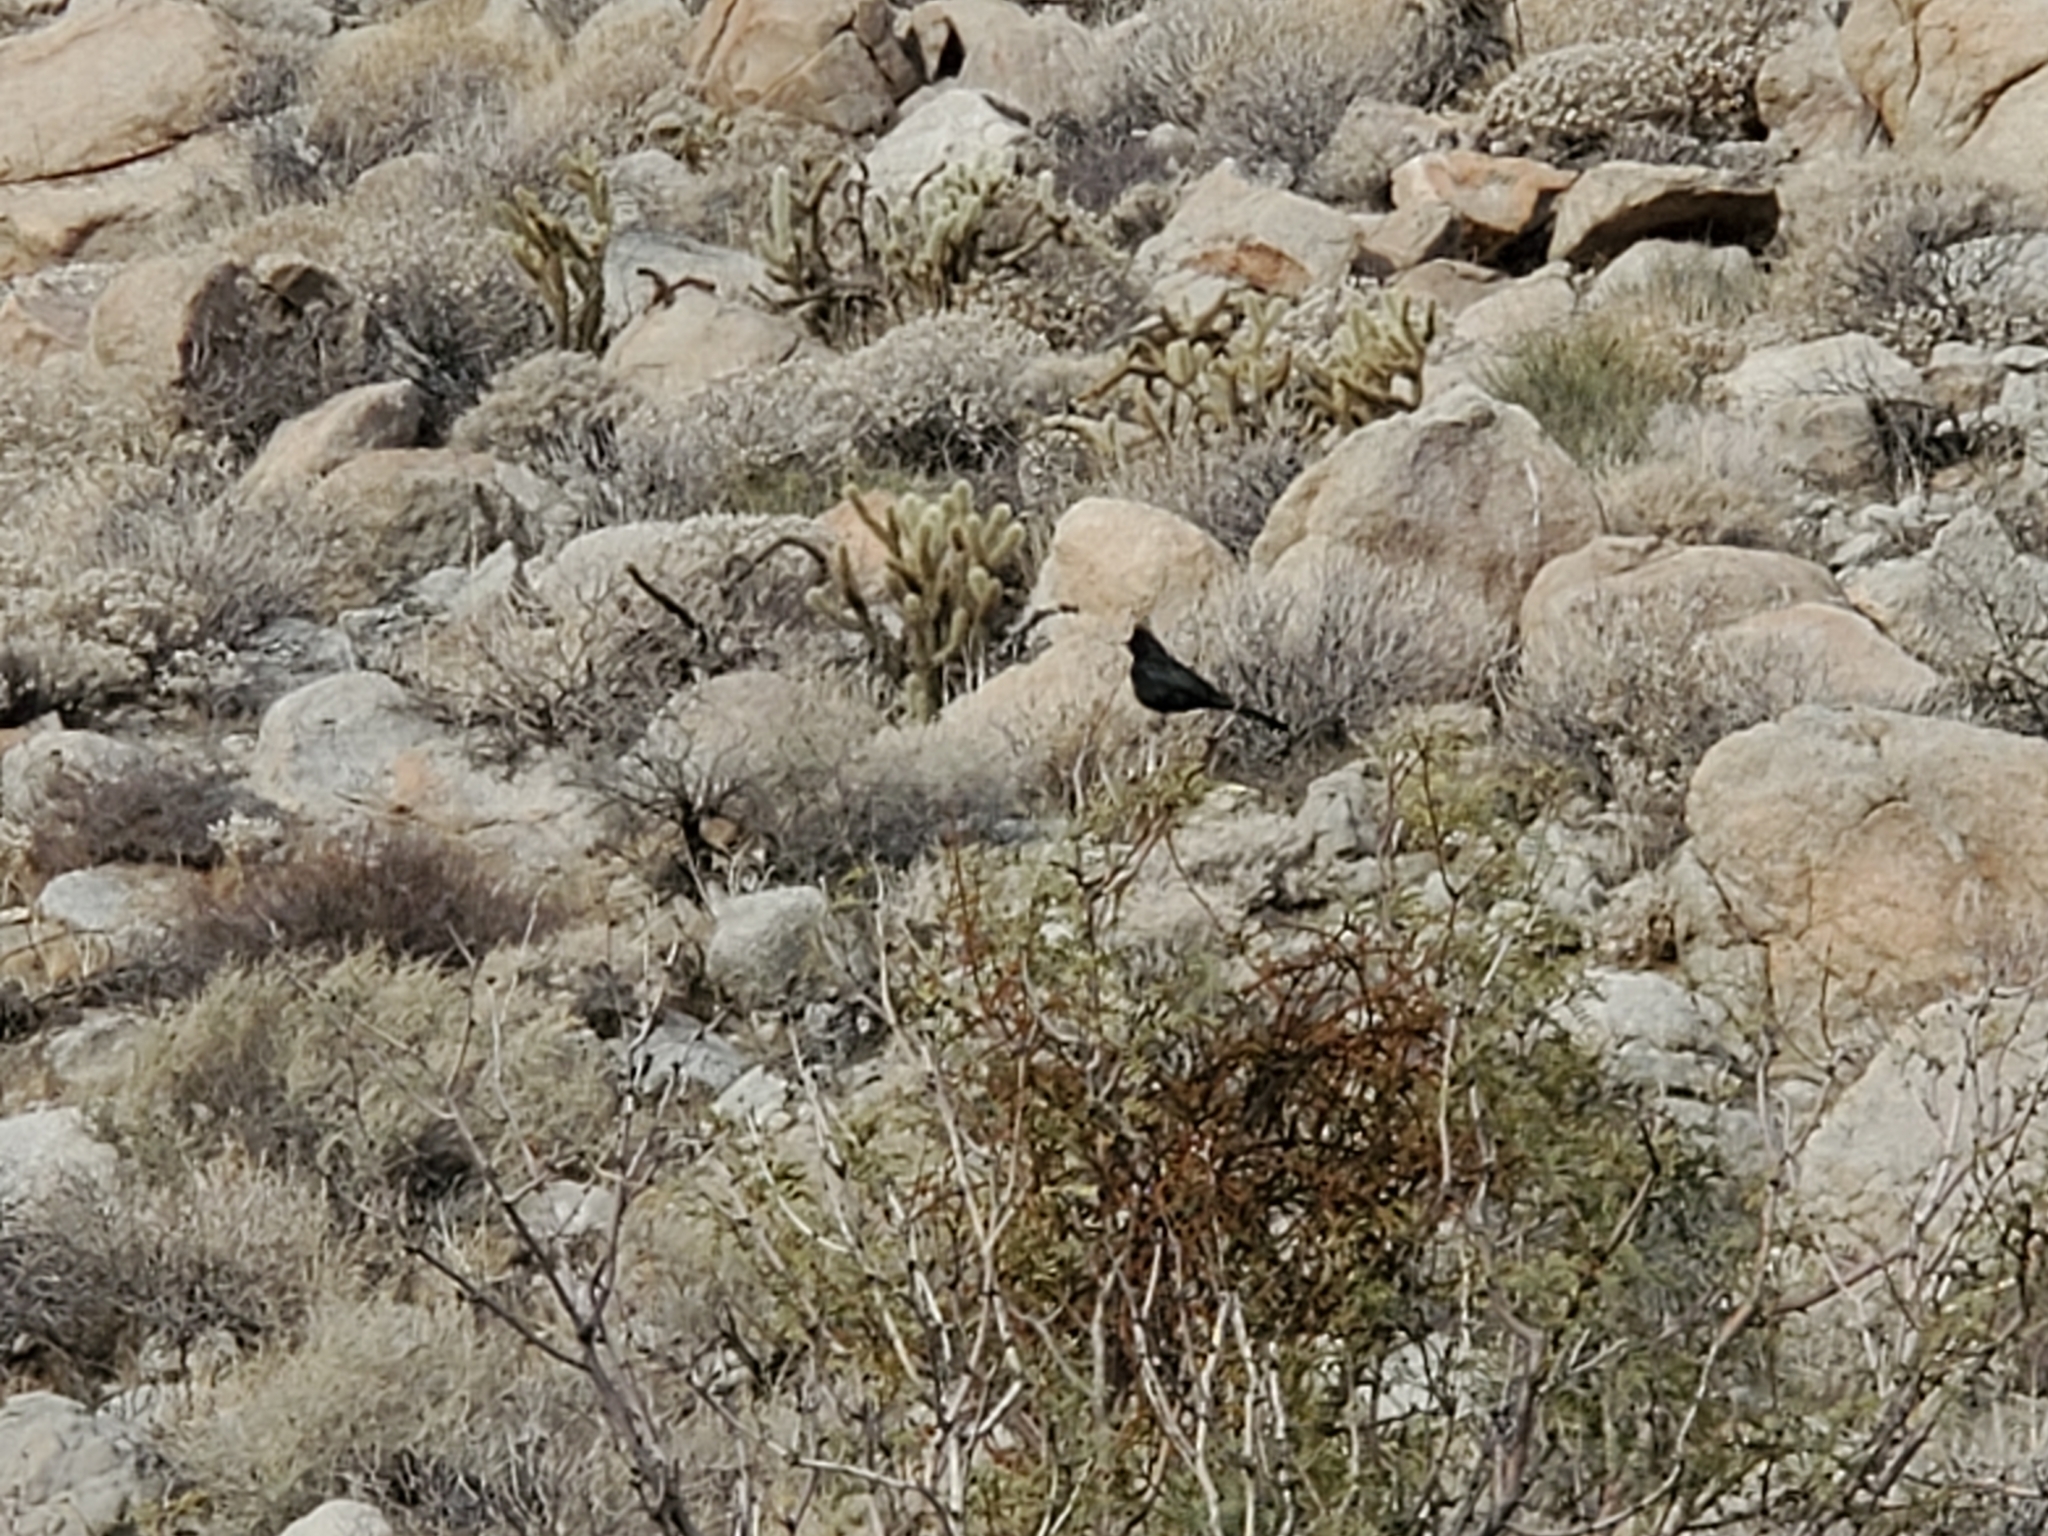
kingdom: Animalia
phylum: Chordata
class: Aves
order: Passeriformes
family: Ptilogonatidae
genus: Phainopepla
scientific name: Phainopepla nitens
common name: Phainopepla
